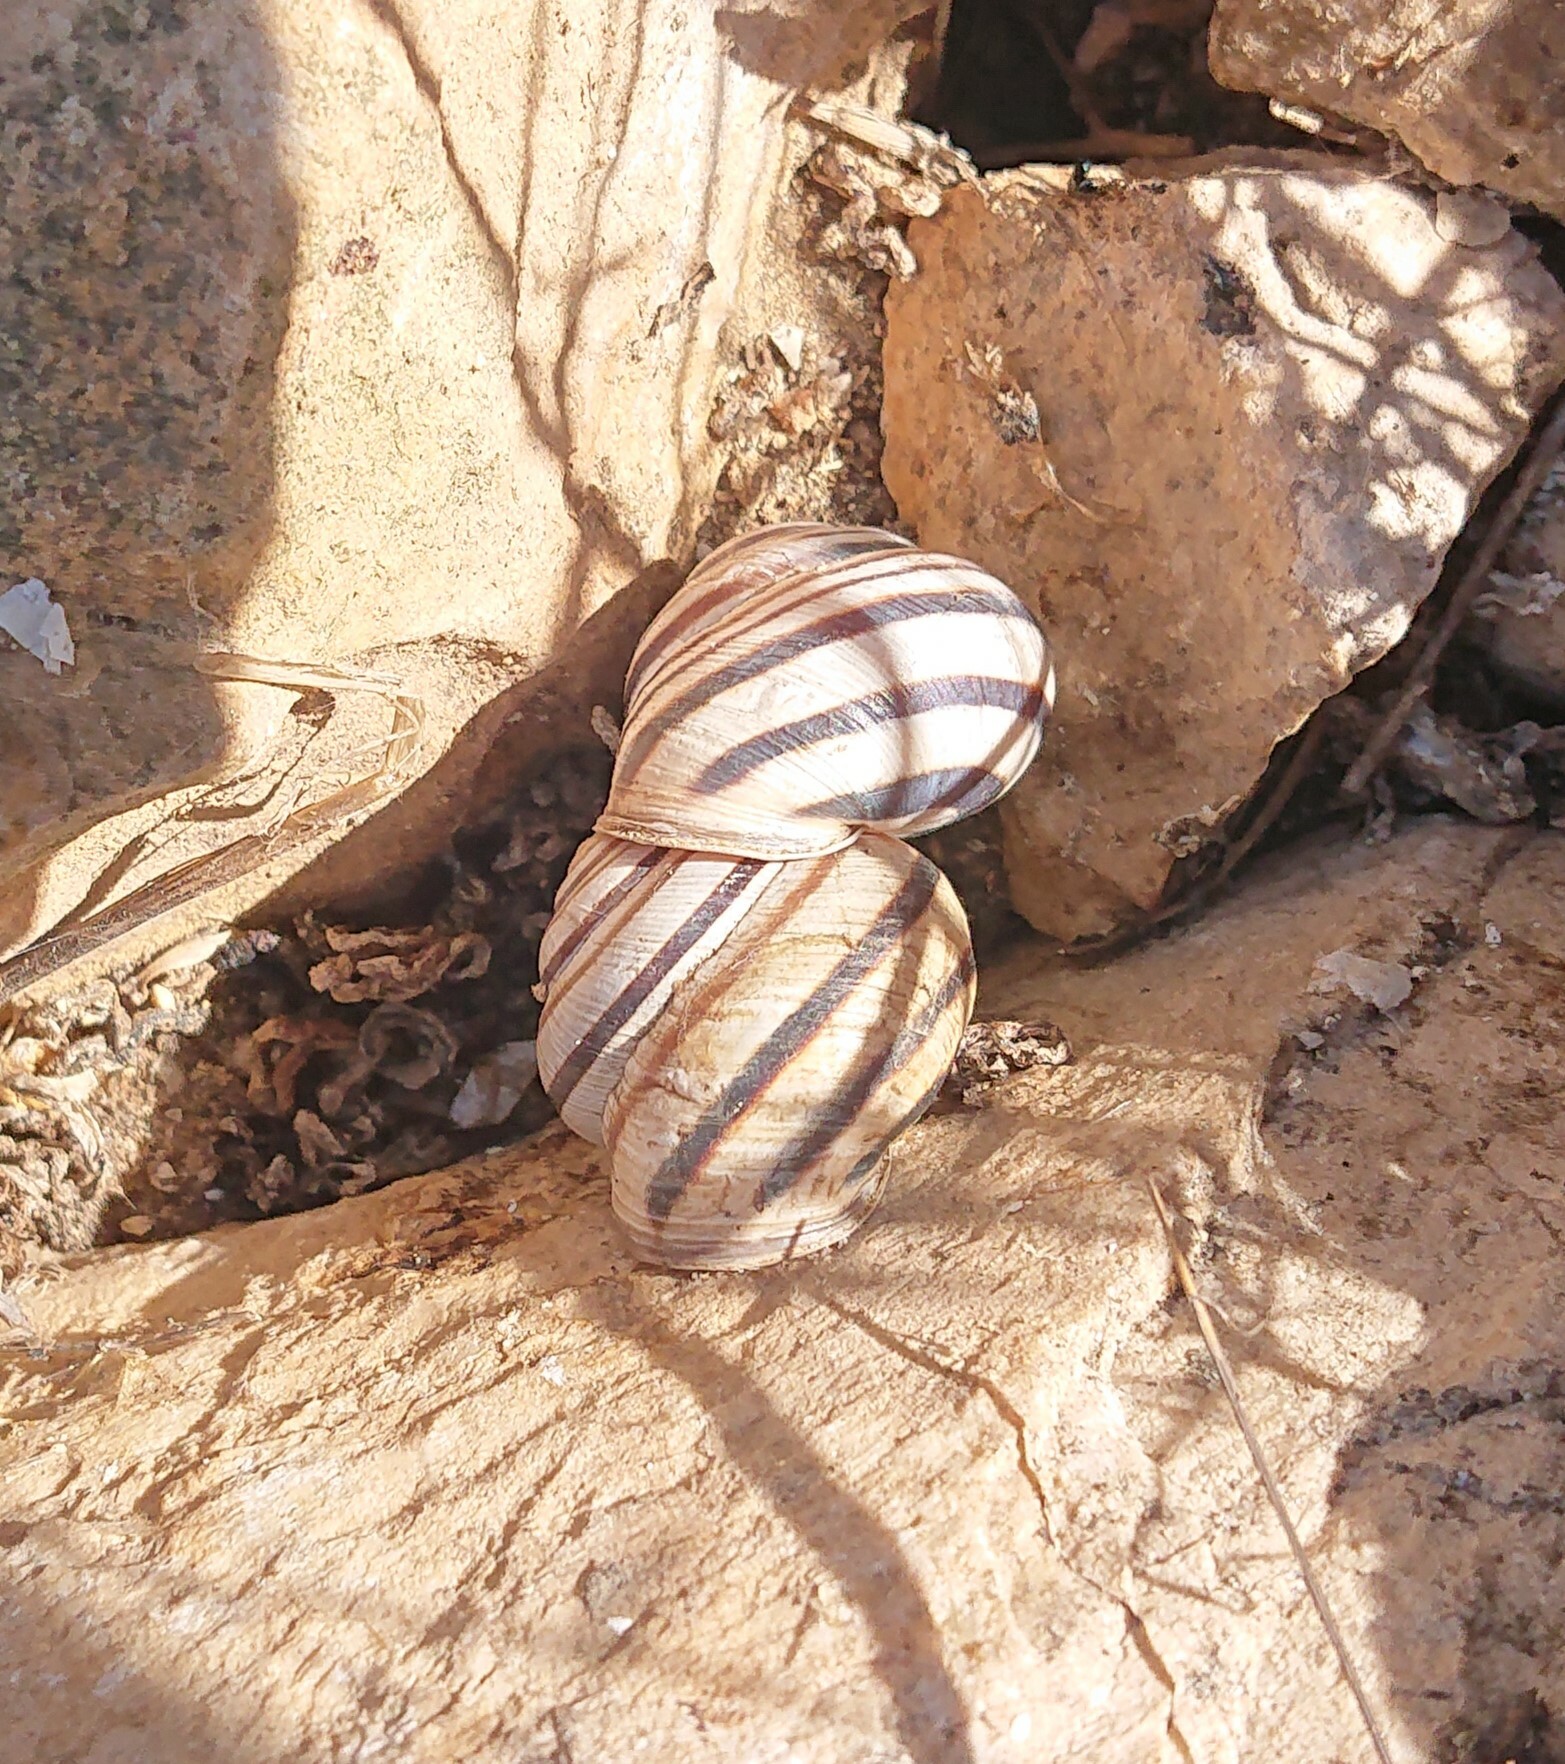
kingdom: Animalia
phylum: Mollusca
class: Gastropoda
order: Stylommatophora
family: Helicidae
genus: Caucasotachea
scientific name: Caucasotachea vindobonensis
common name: European helicid land snail
